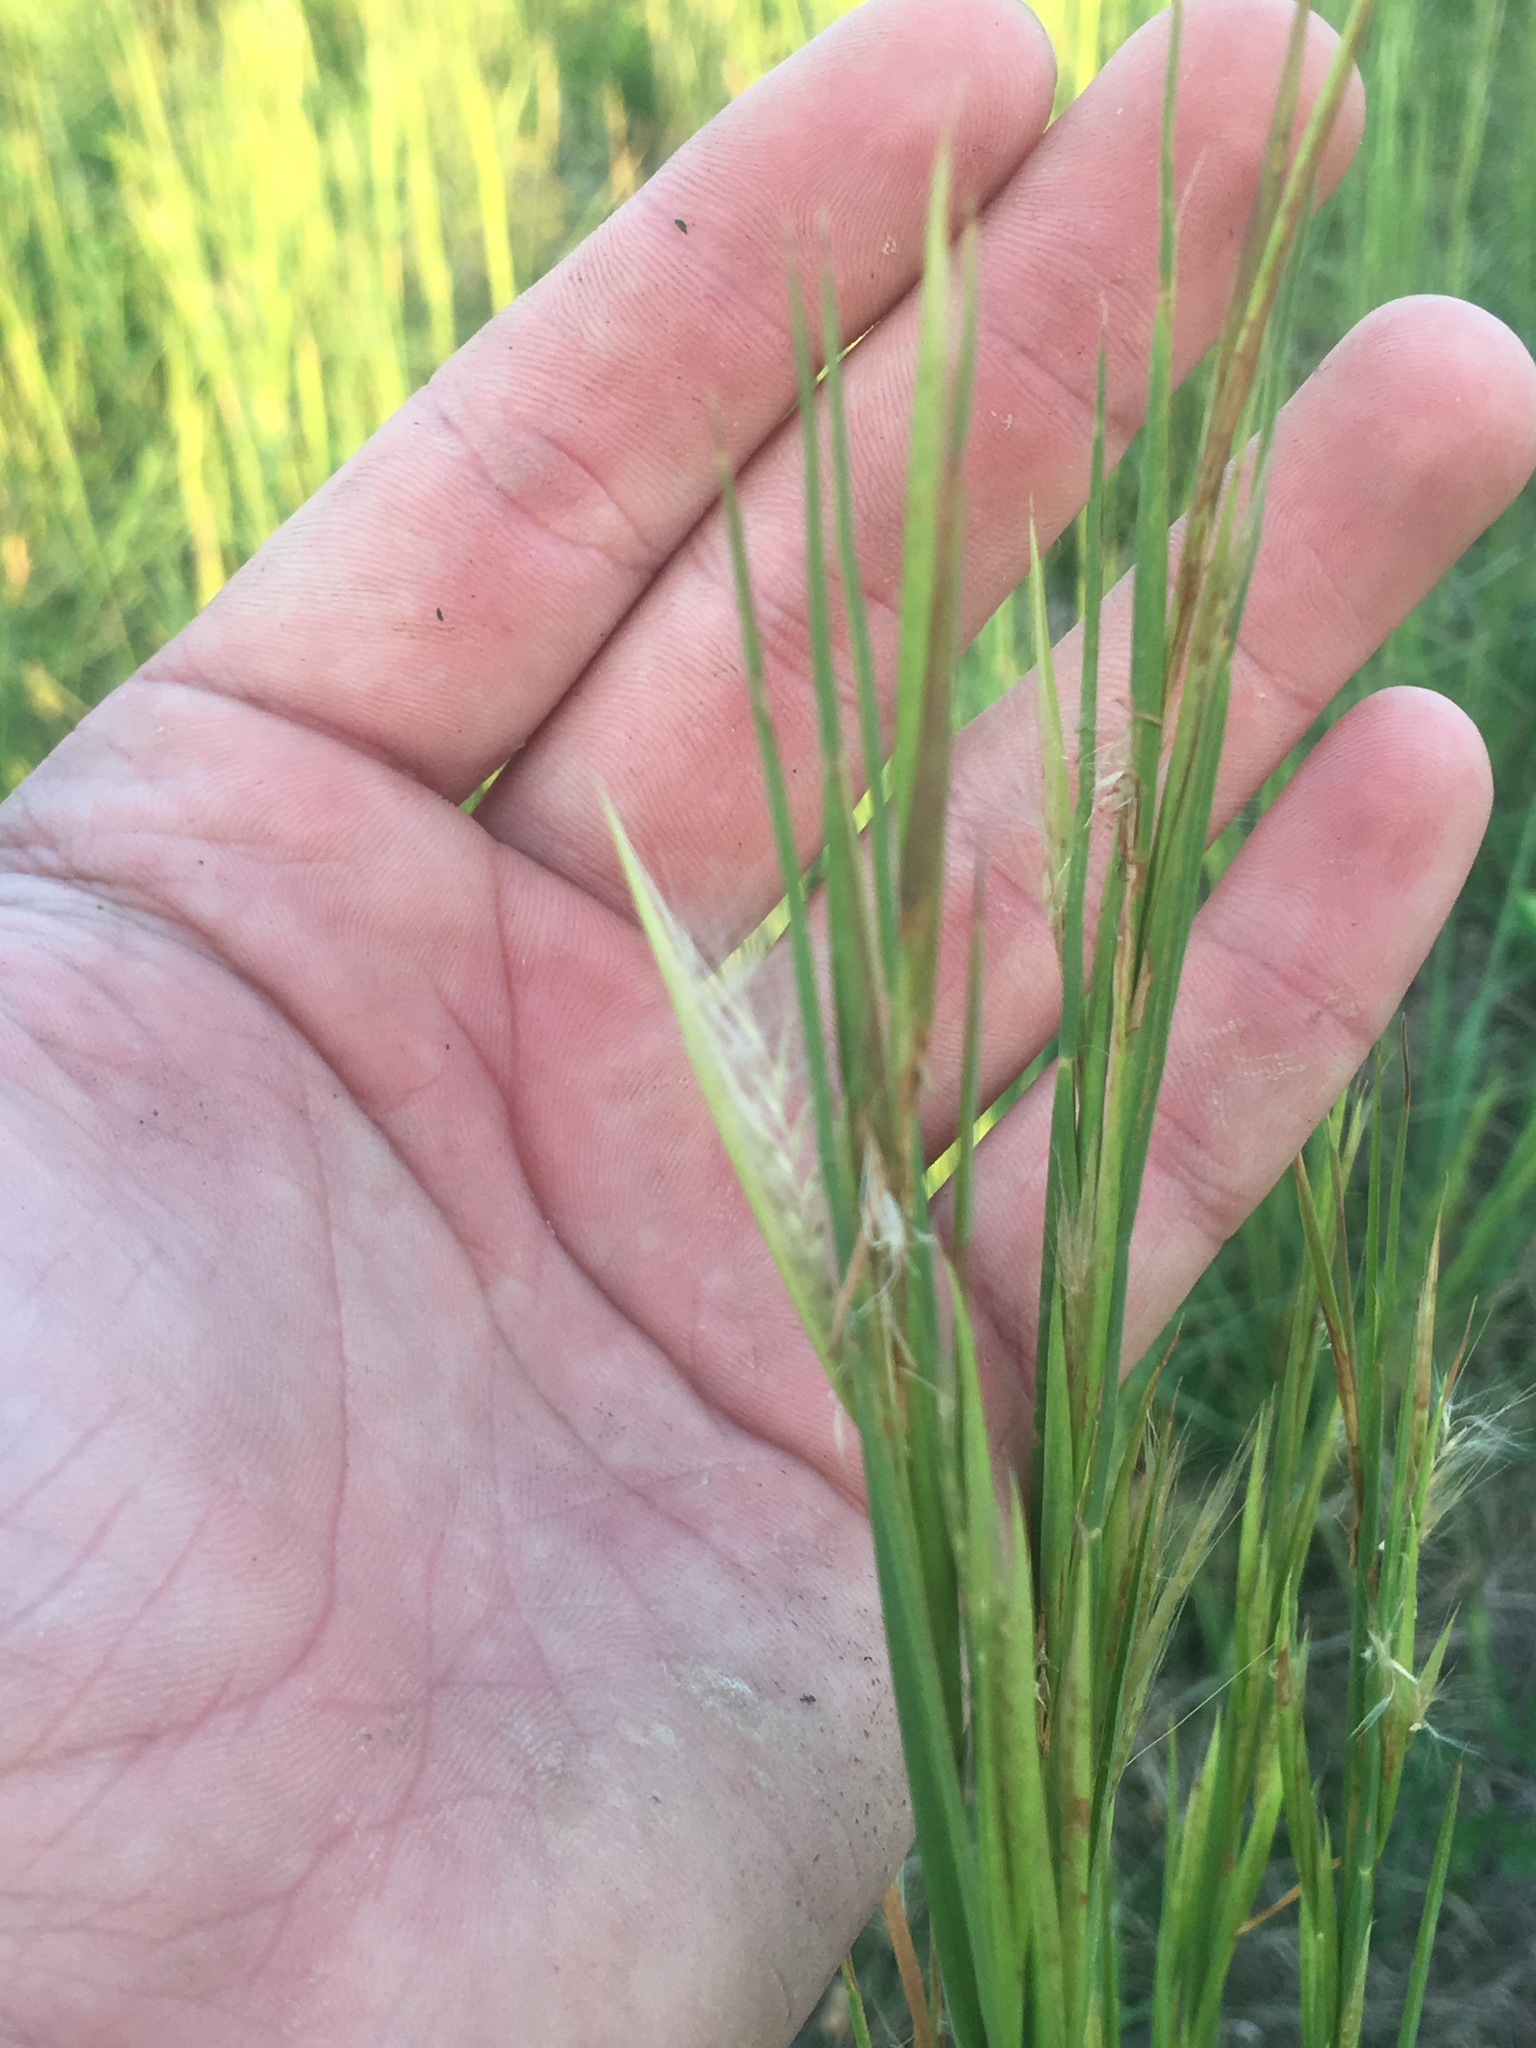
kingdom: Plantae
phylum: Tracheophyta
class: Liliopsida
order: Poales
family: Poaceae
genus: Andropogon
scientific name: Andropogon virginicus
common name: Broomsedge bluestem
